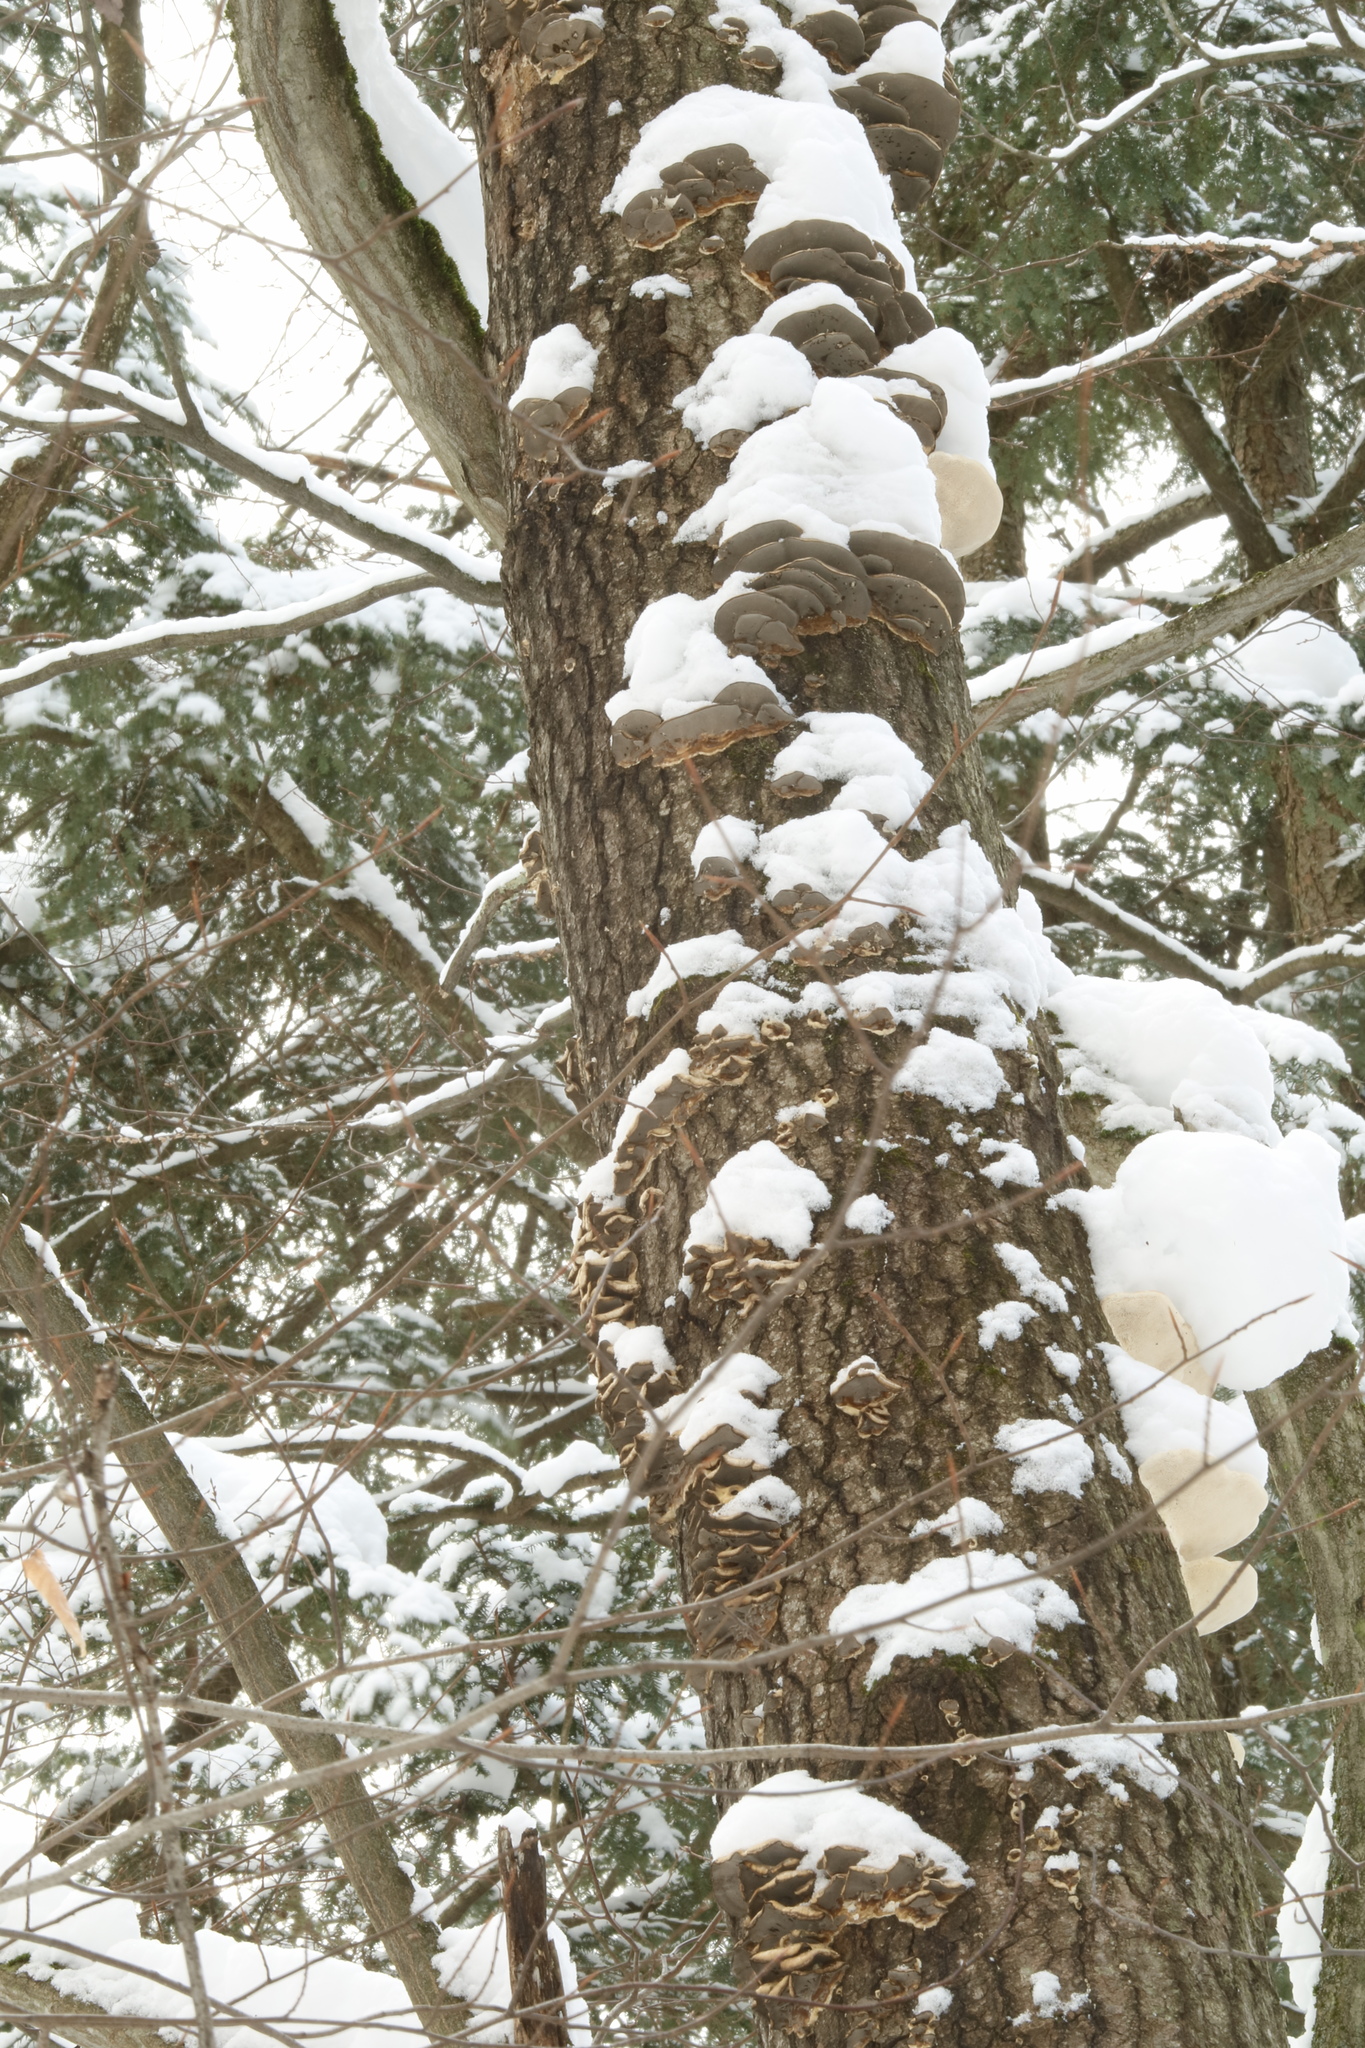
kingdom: Fungi
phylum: Basidiomycota
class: Agaricomycetes
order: Polyporales
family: Phanerochaetaceae
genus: Bjerkandera
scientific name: Bjerkandera adusta
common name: Smoky bracket
